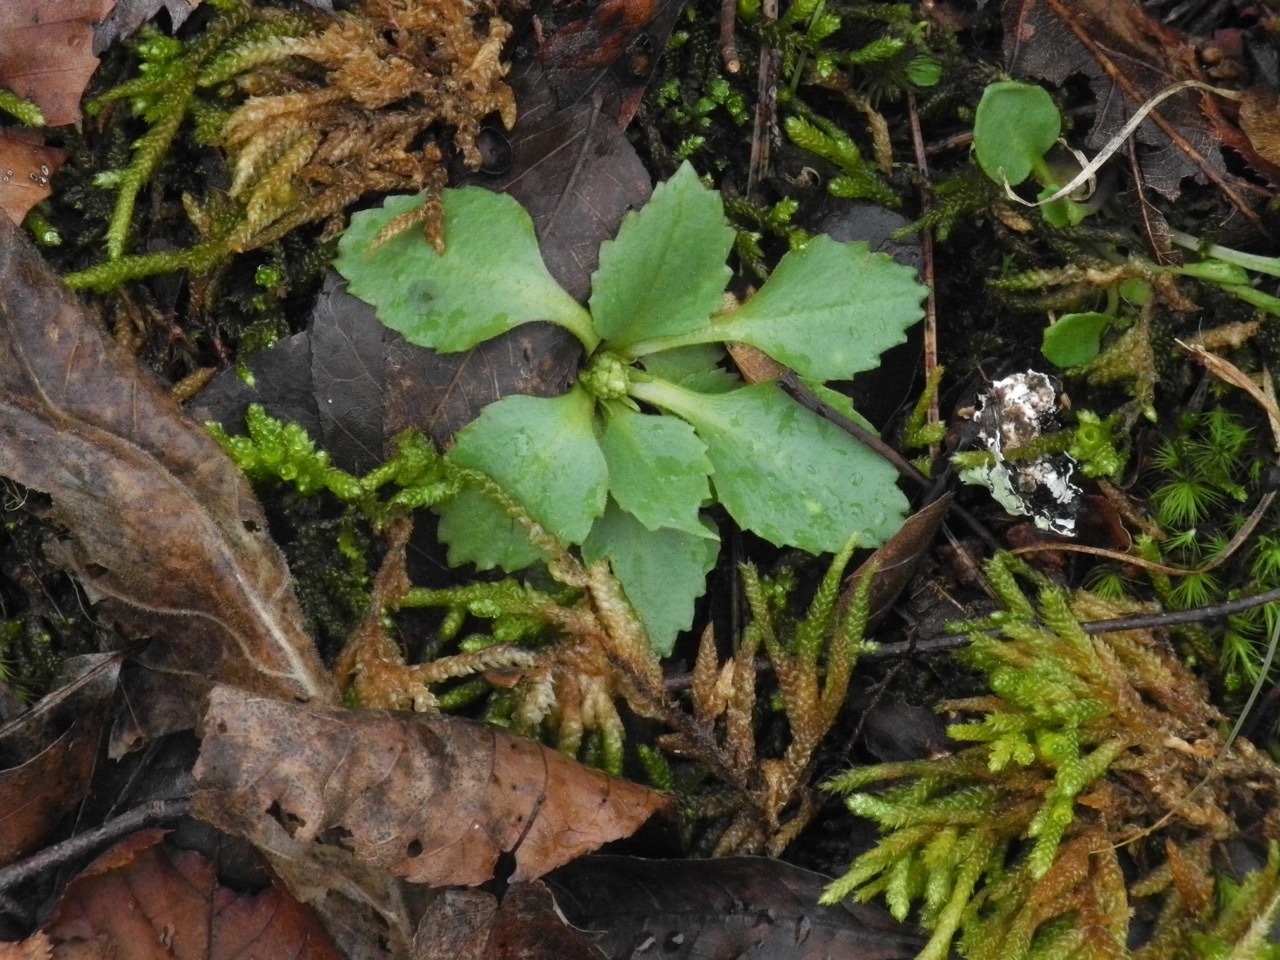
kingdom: Plantae
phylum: Tracheophyta
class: Magnoliopsida
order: Saxifragales
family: Saxifragaceae
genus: Micranthes
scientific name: Micranthes virginiensis
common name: Early saxifrage
